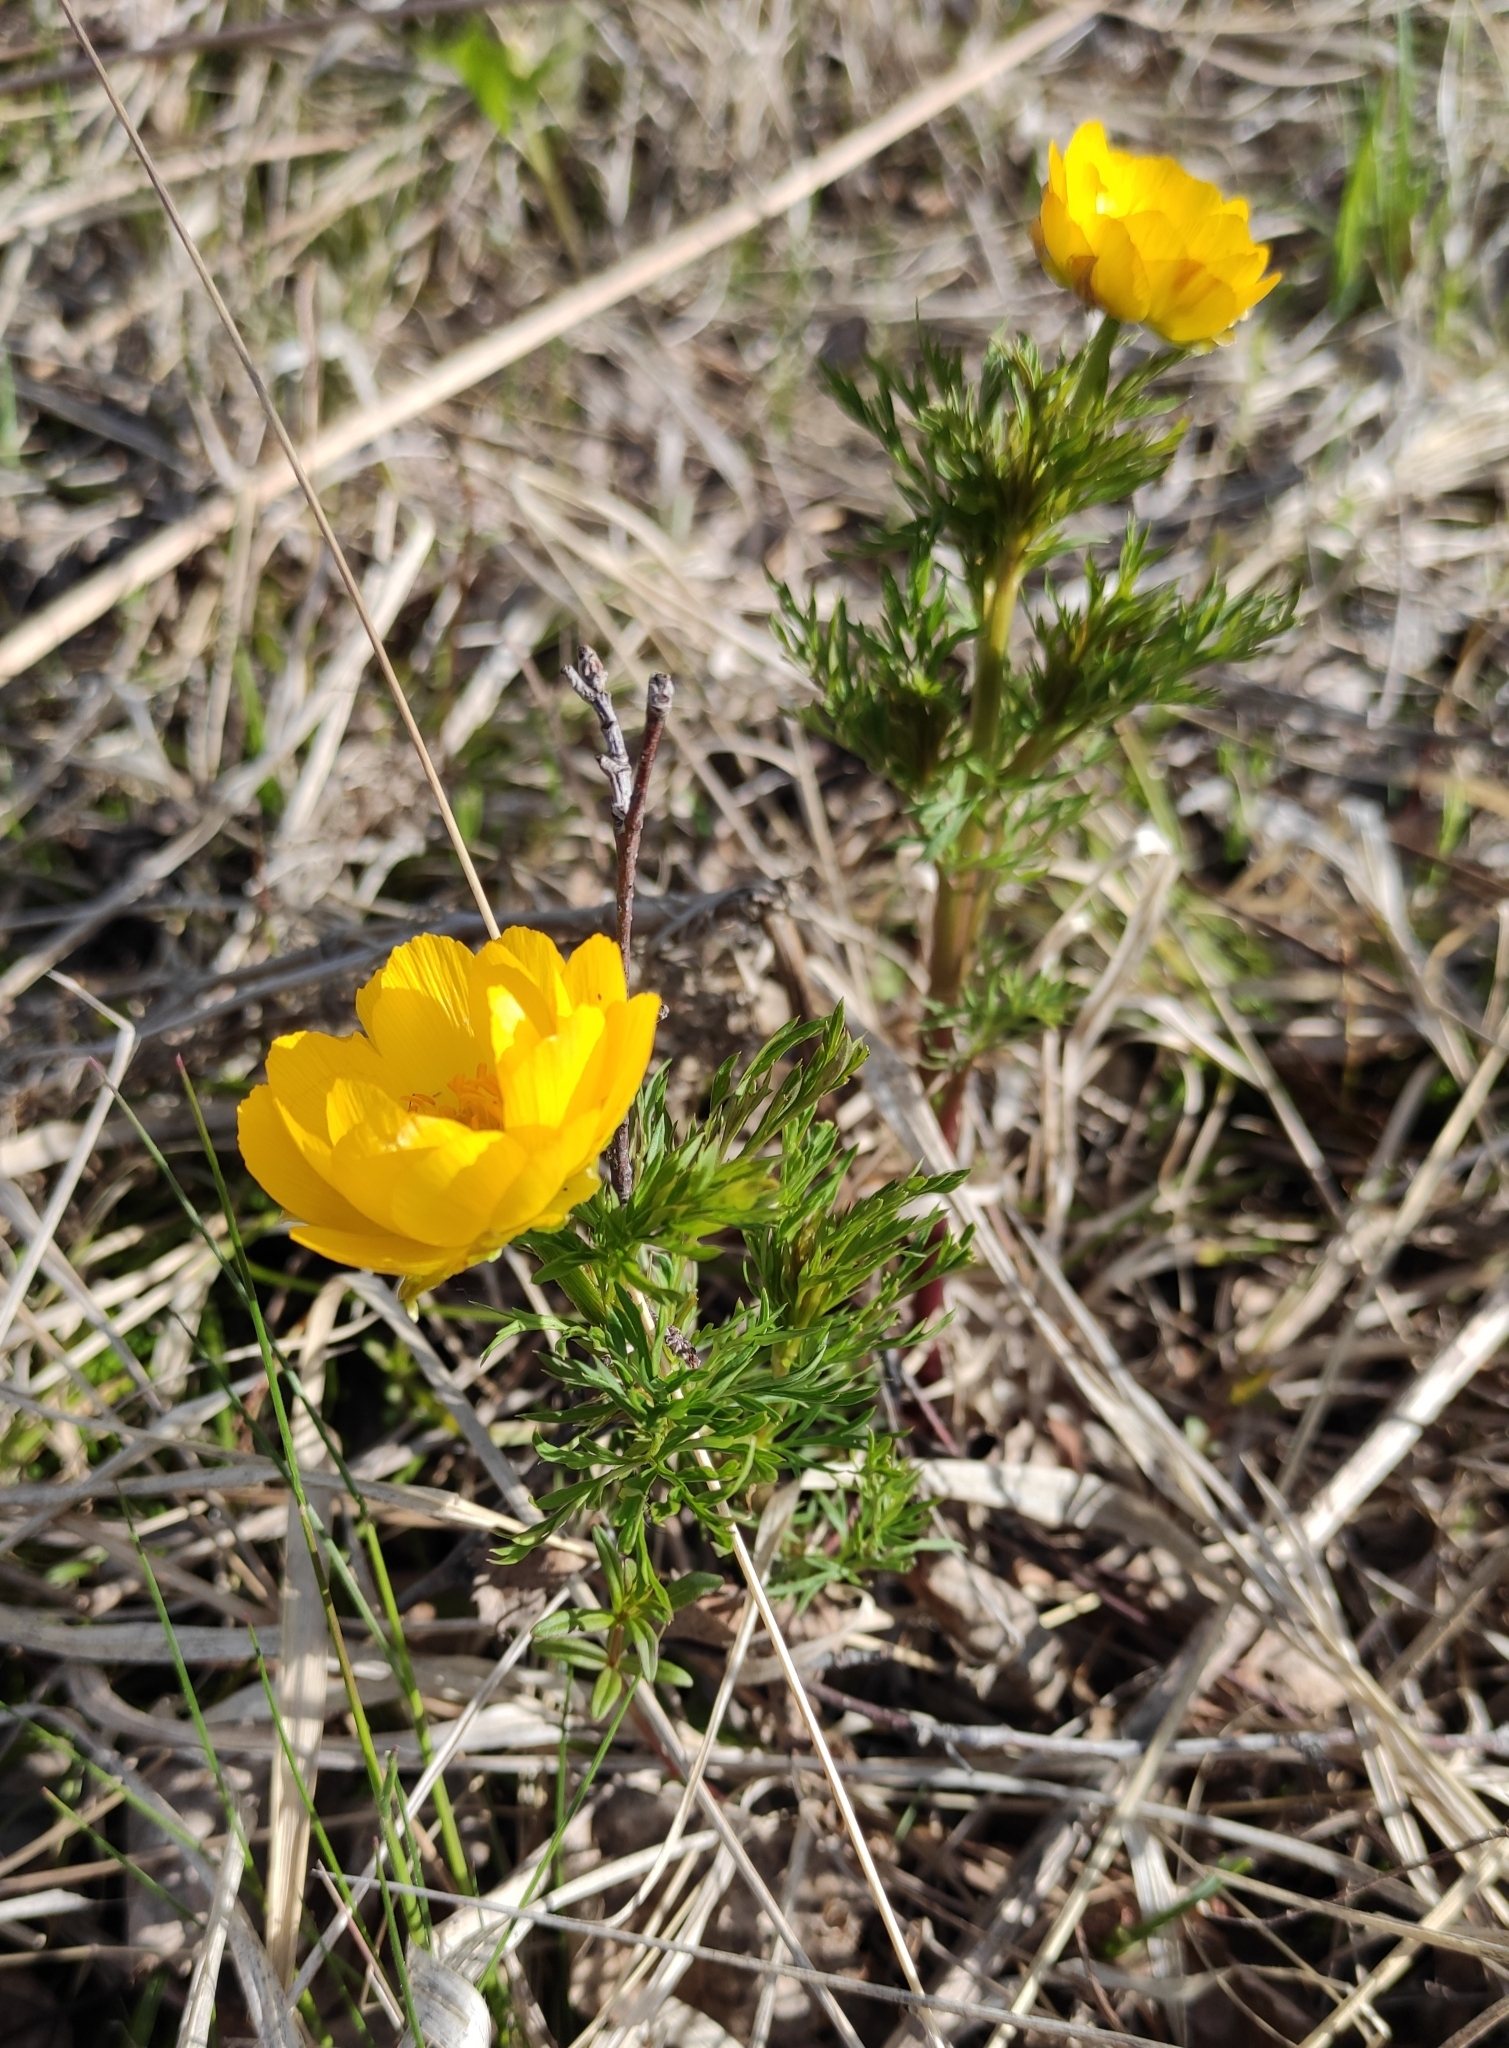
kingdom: Plantae
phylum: Tracheophyta
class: Magnoliopsida
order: Ranunculales
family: Ranunculaceae
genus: Adonis
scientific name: Adonis
